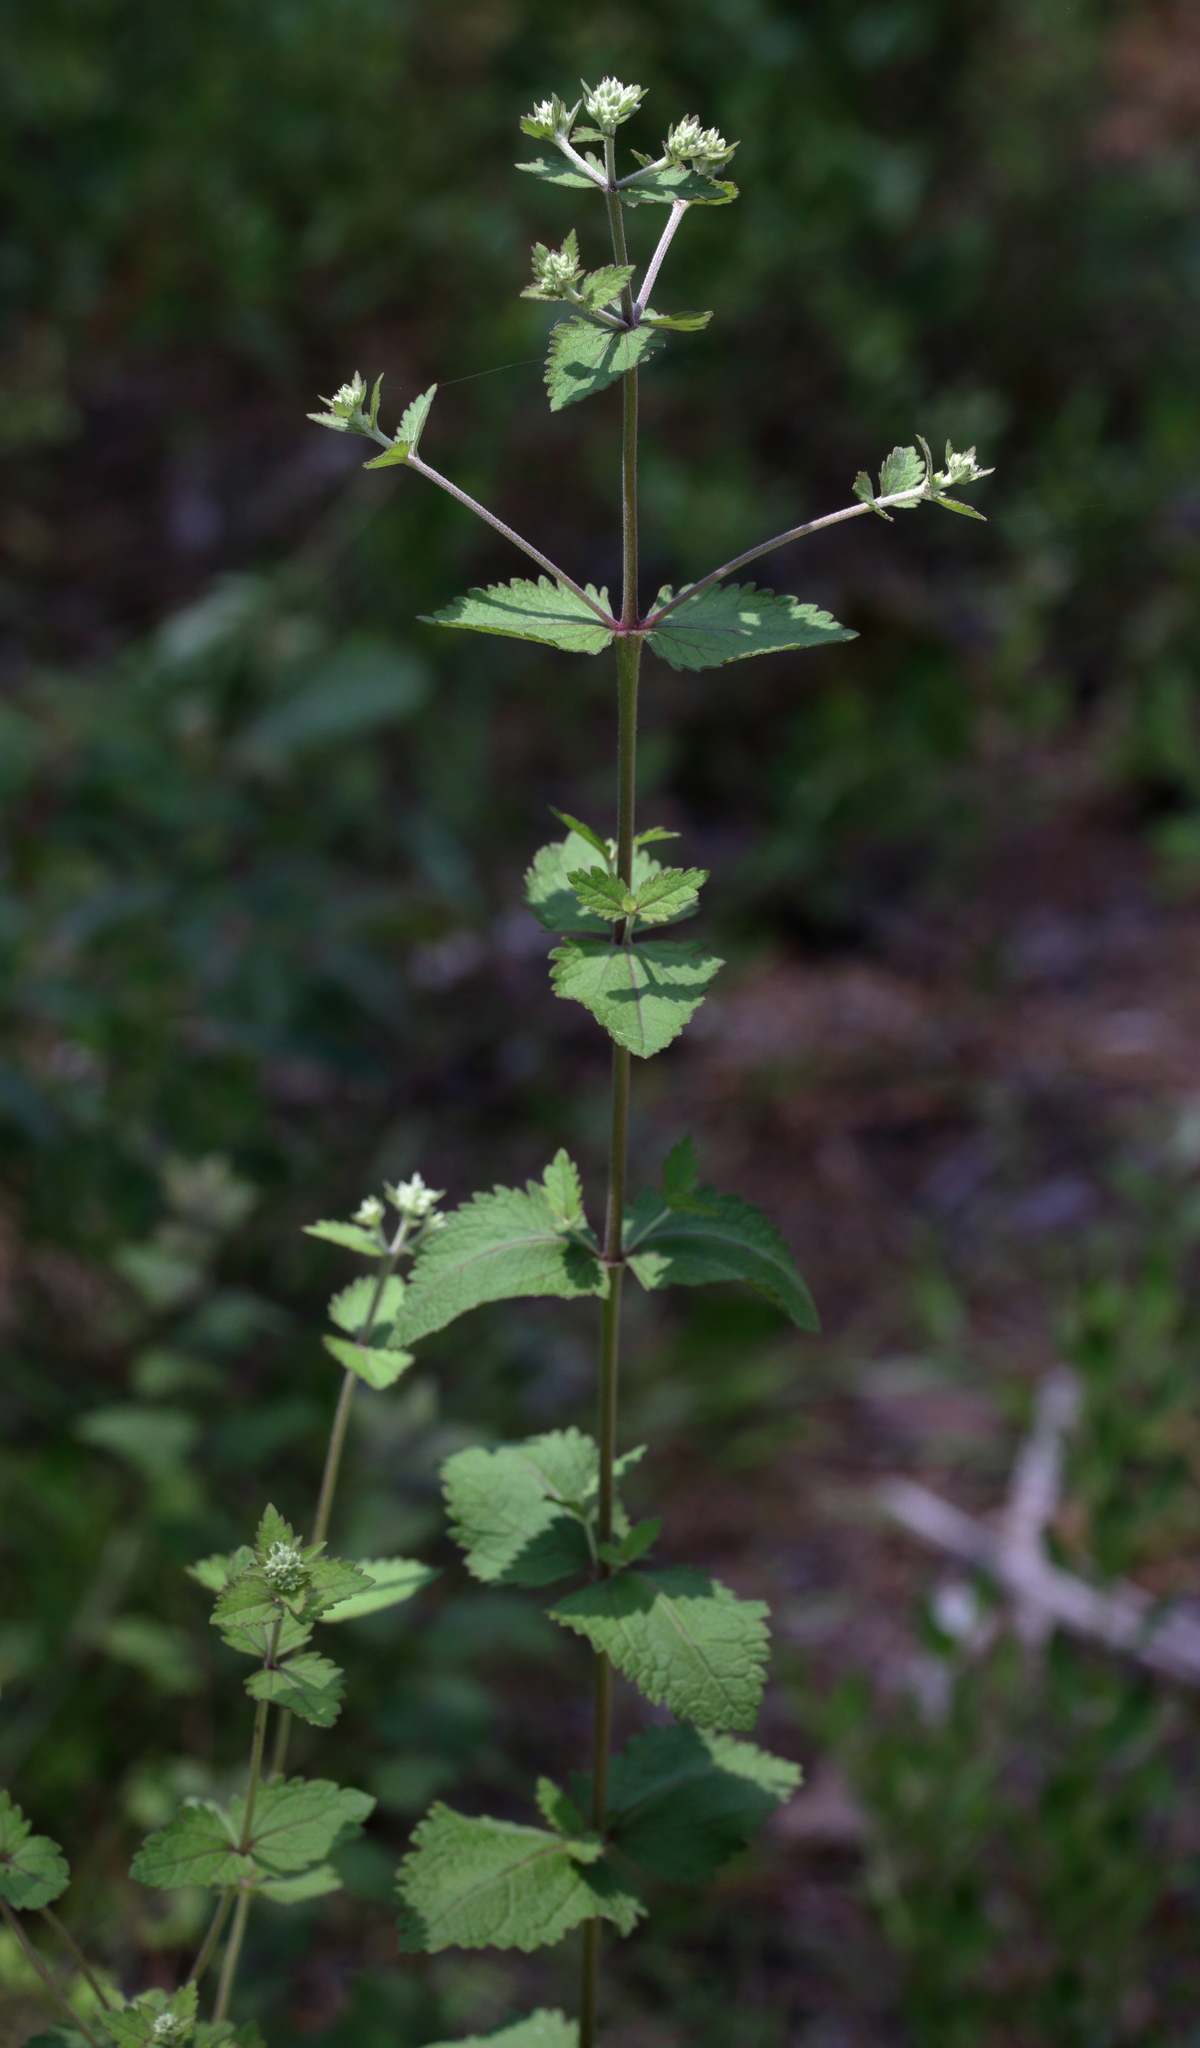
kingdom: Plantae
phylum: Tracheophyta
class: Magnoliopsida
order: Asterales
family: Asteraceae
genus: Eupatorium
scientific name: Eupatorium rotundifolium
